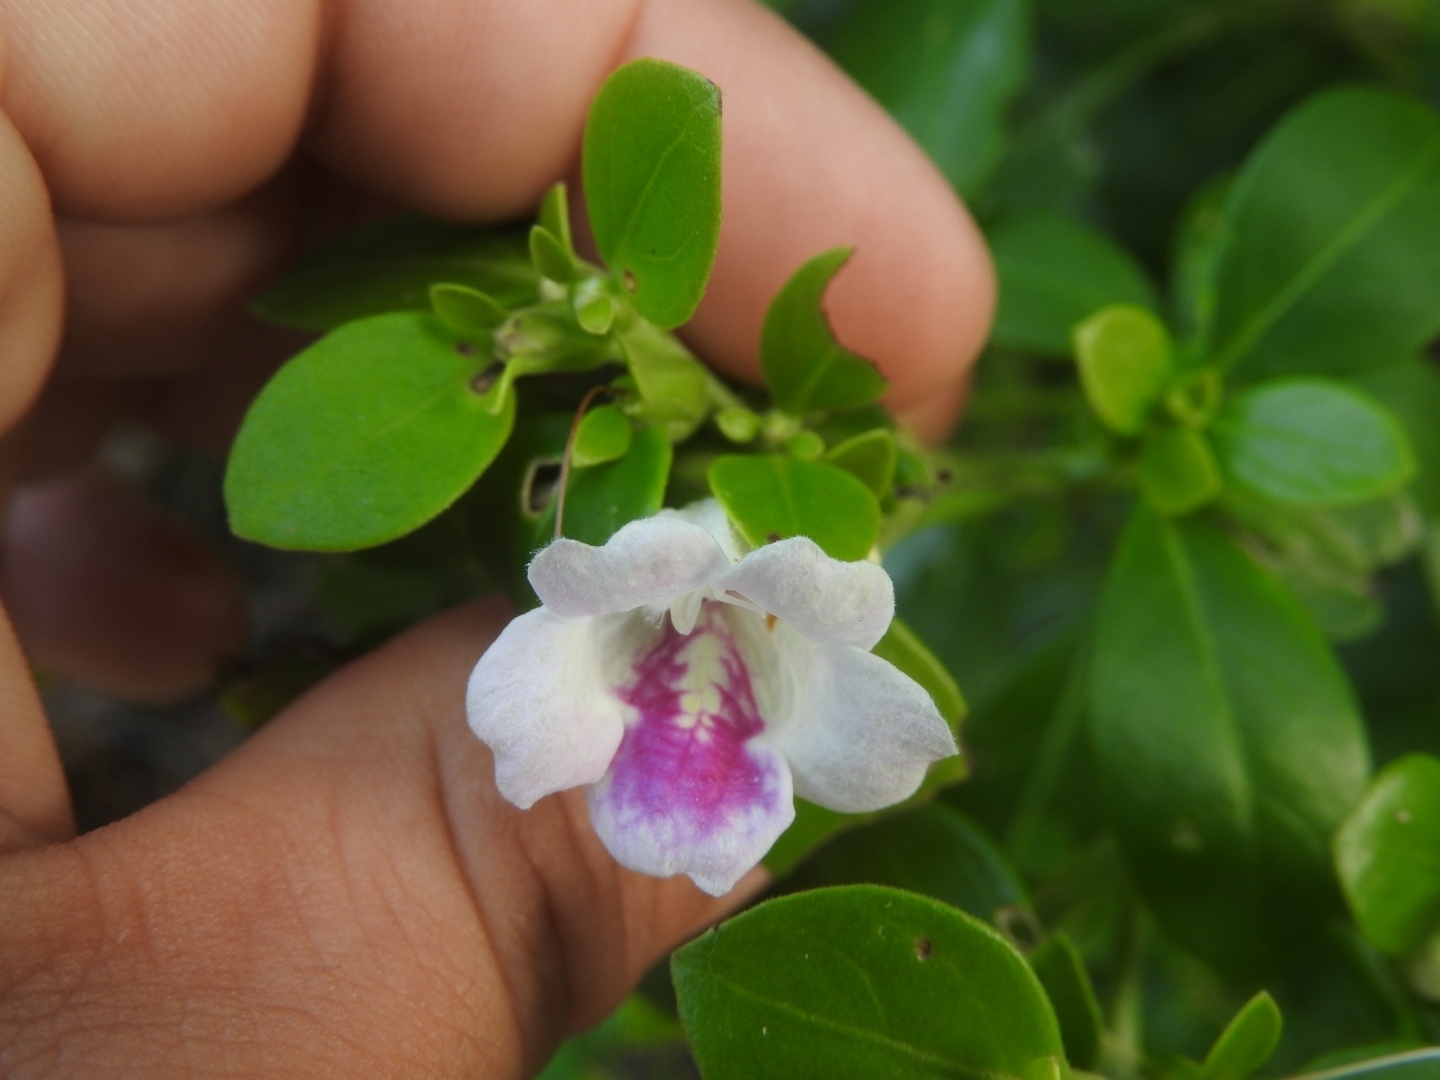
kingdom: Plantae
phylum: Tracheophyta
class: Magnoliopsida
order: Lamiales
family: Acanthaceae
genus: Bravaisia
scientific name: Bravaisia berlandieriana
